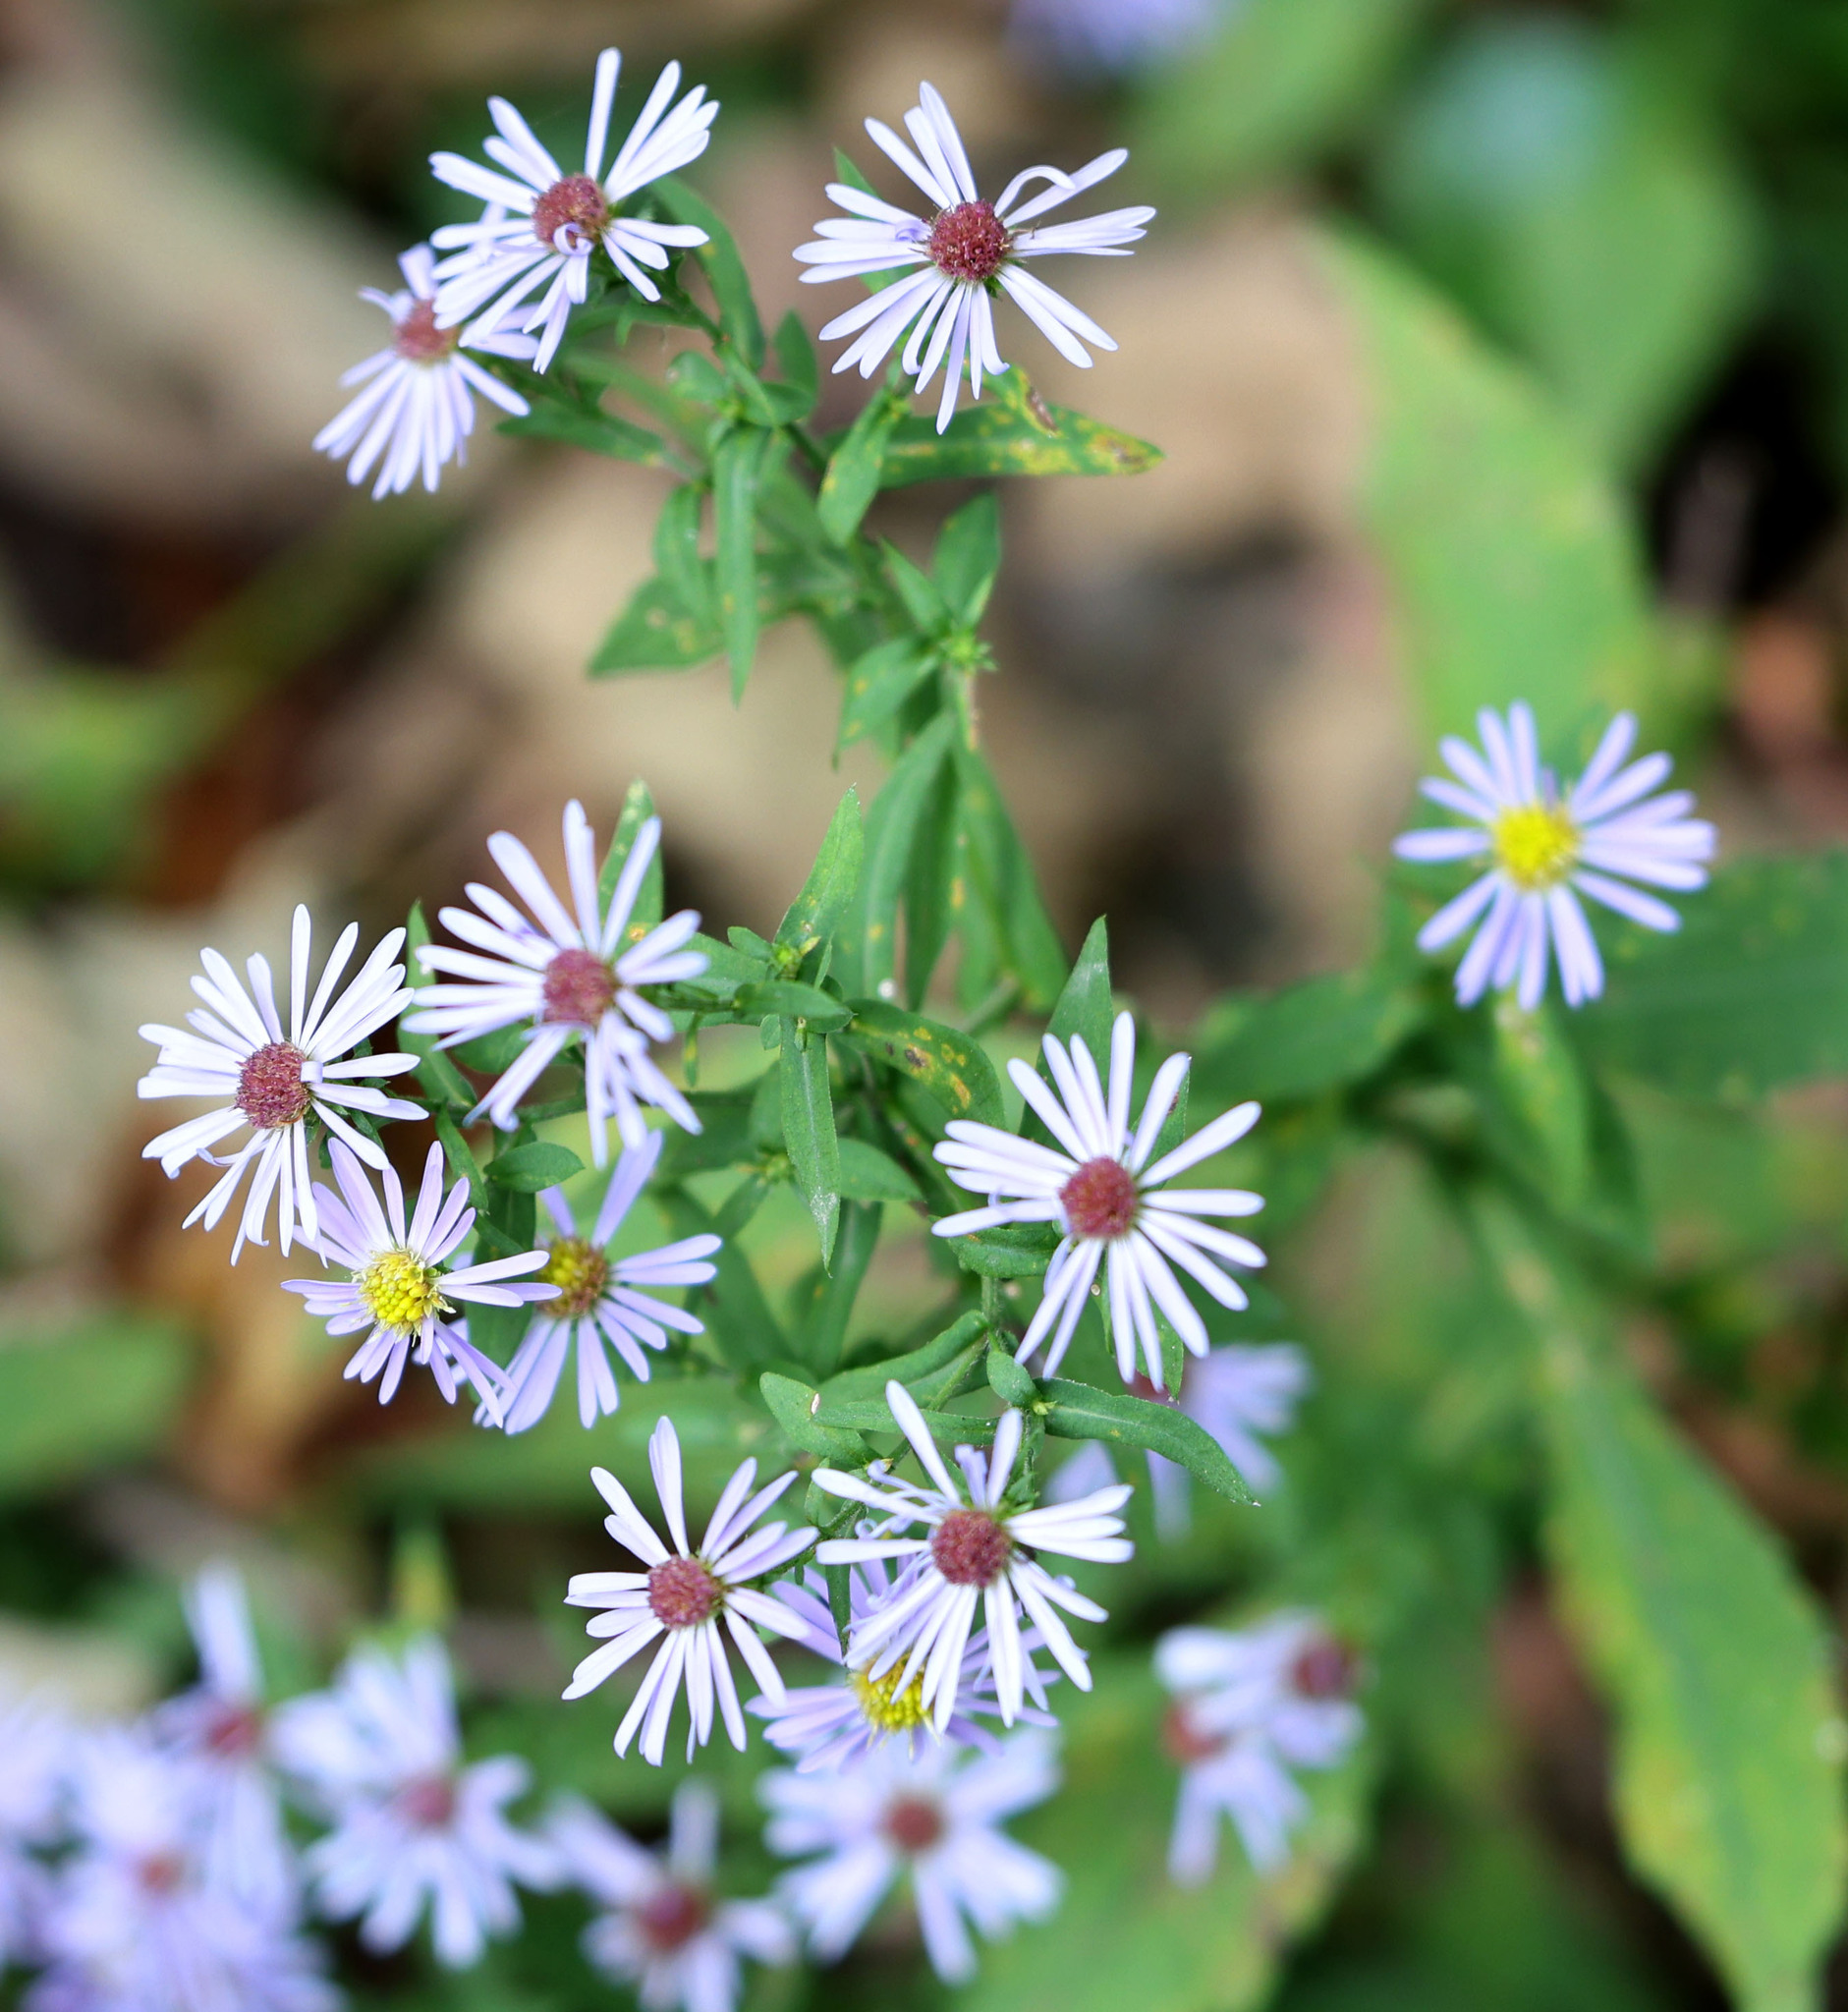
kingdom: Plantae
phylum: Tracheophyta
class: Magnoliopsida
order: Asterales
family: Asteraceae
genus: Symphyotrichum
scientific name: Symphyotrichum prenanthoides
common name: Crooked-stem aster
